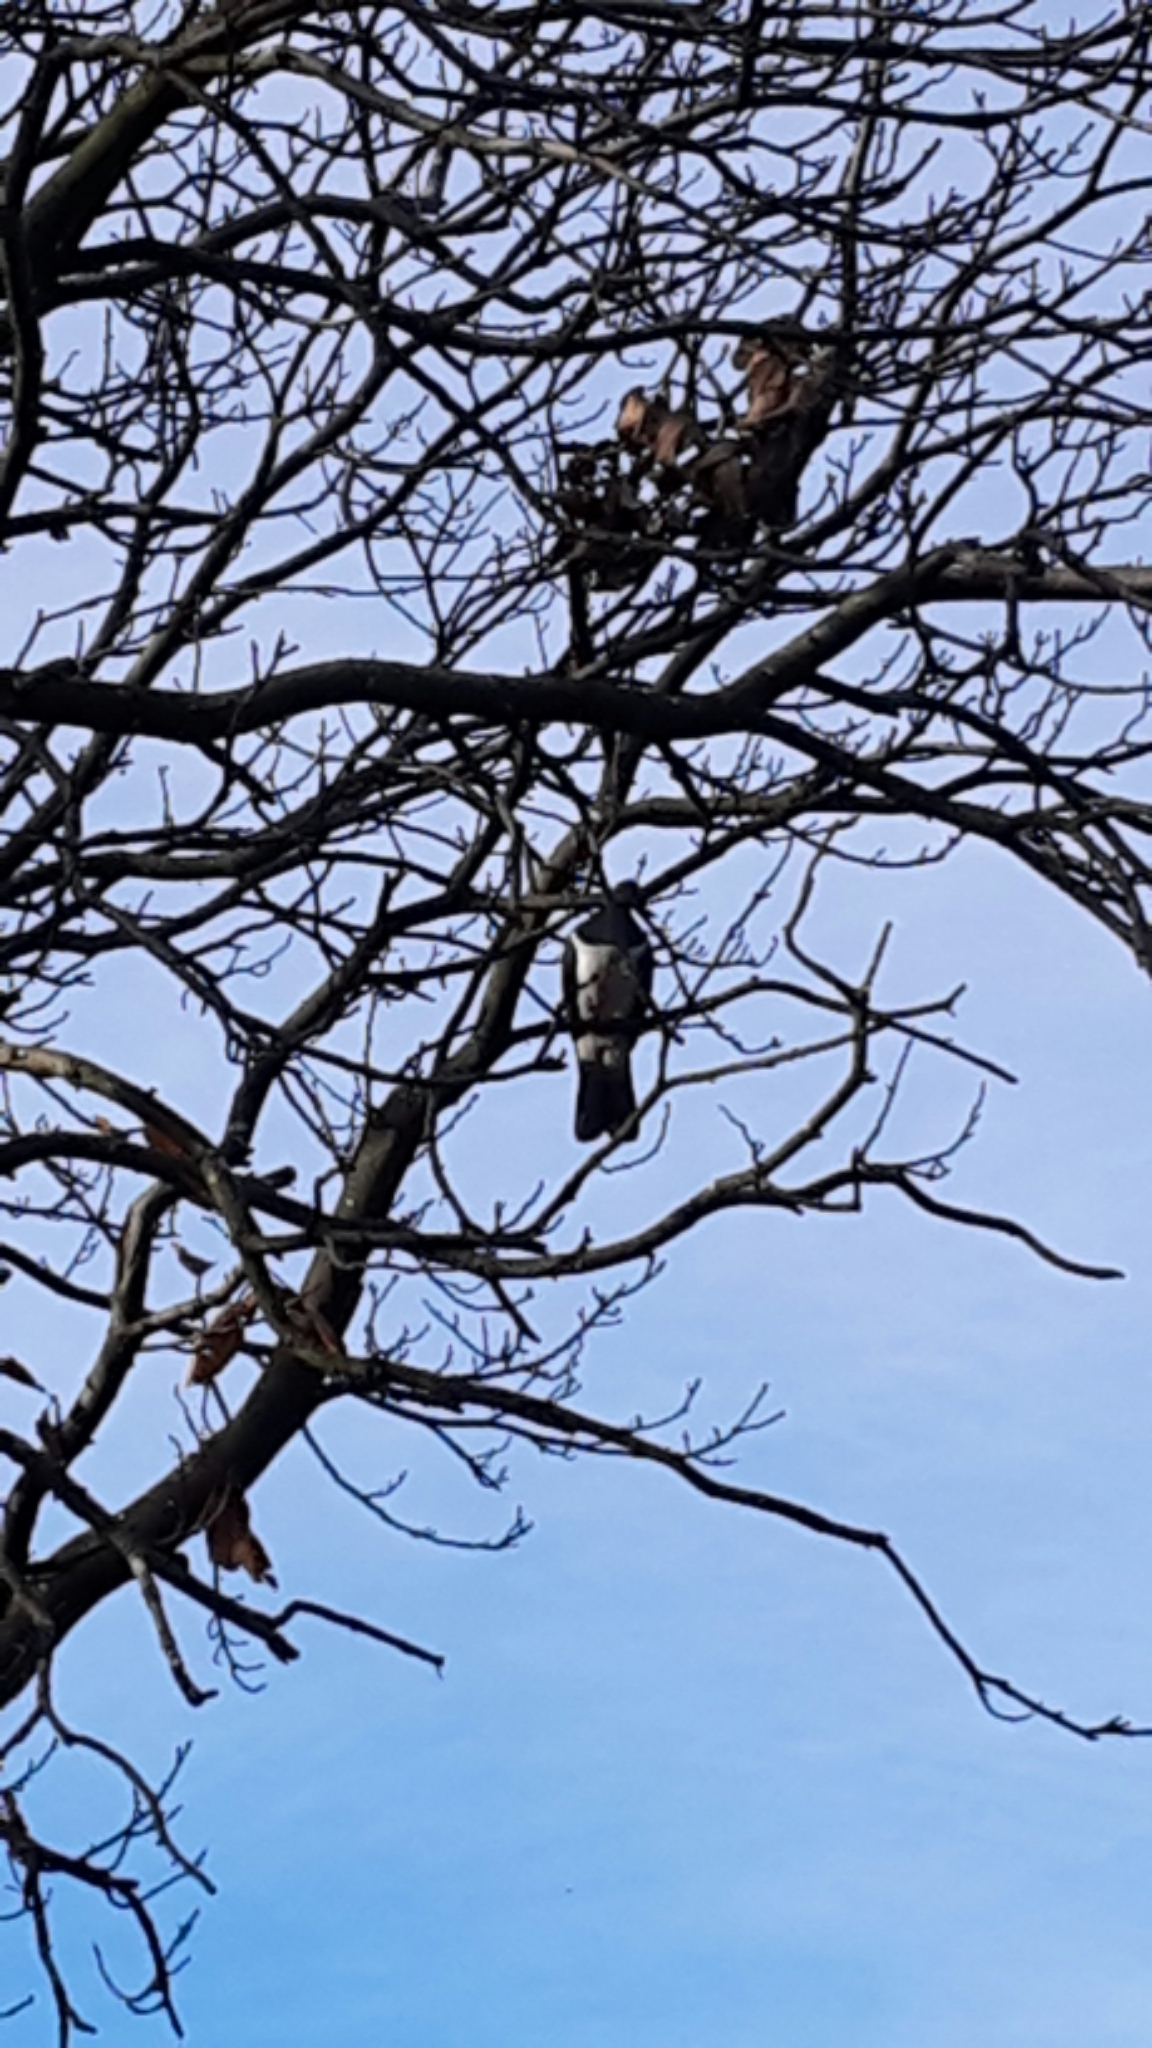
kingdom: Animalia
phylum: Chordata
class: Aves
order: Columbiformes
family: Columbidae
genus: Hemiphaga
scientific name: Hemiphaga novaeseelandiae
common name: New zealand pigeon
